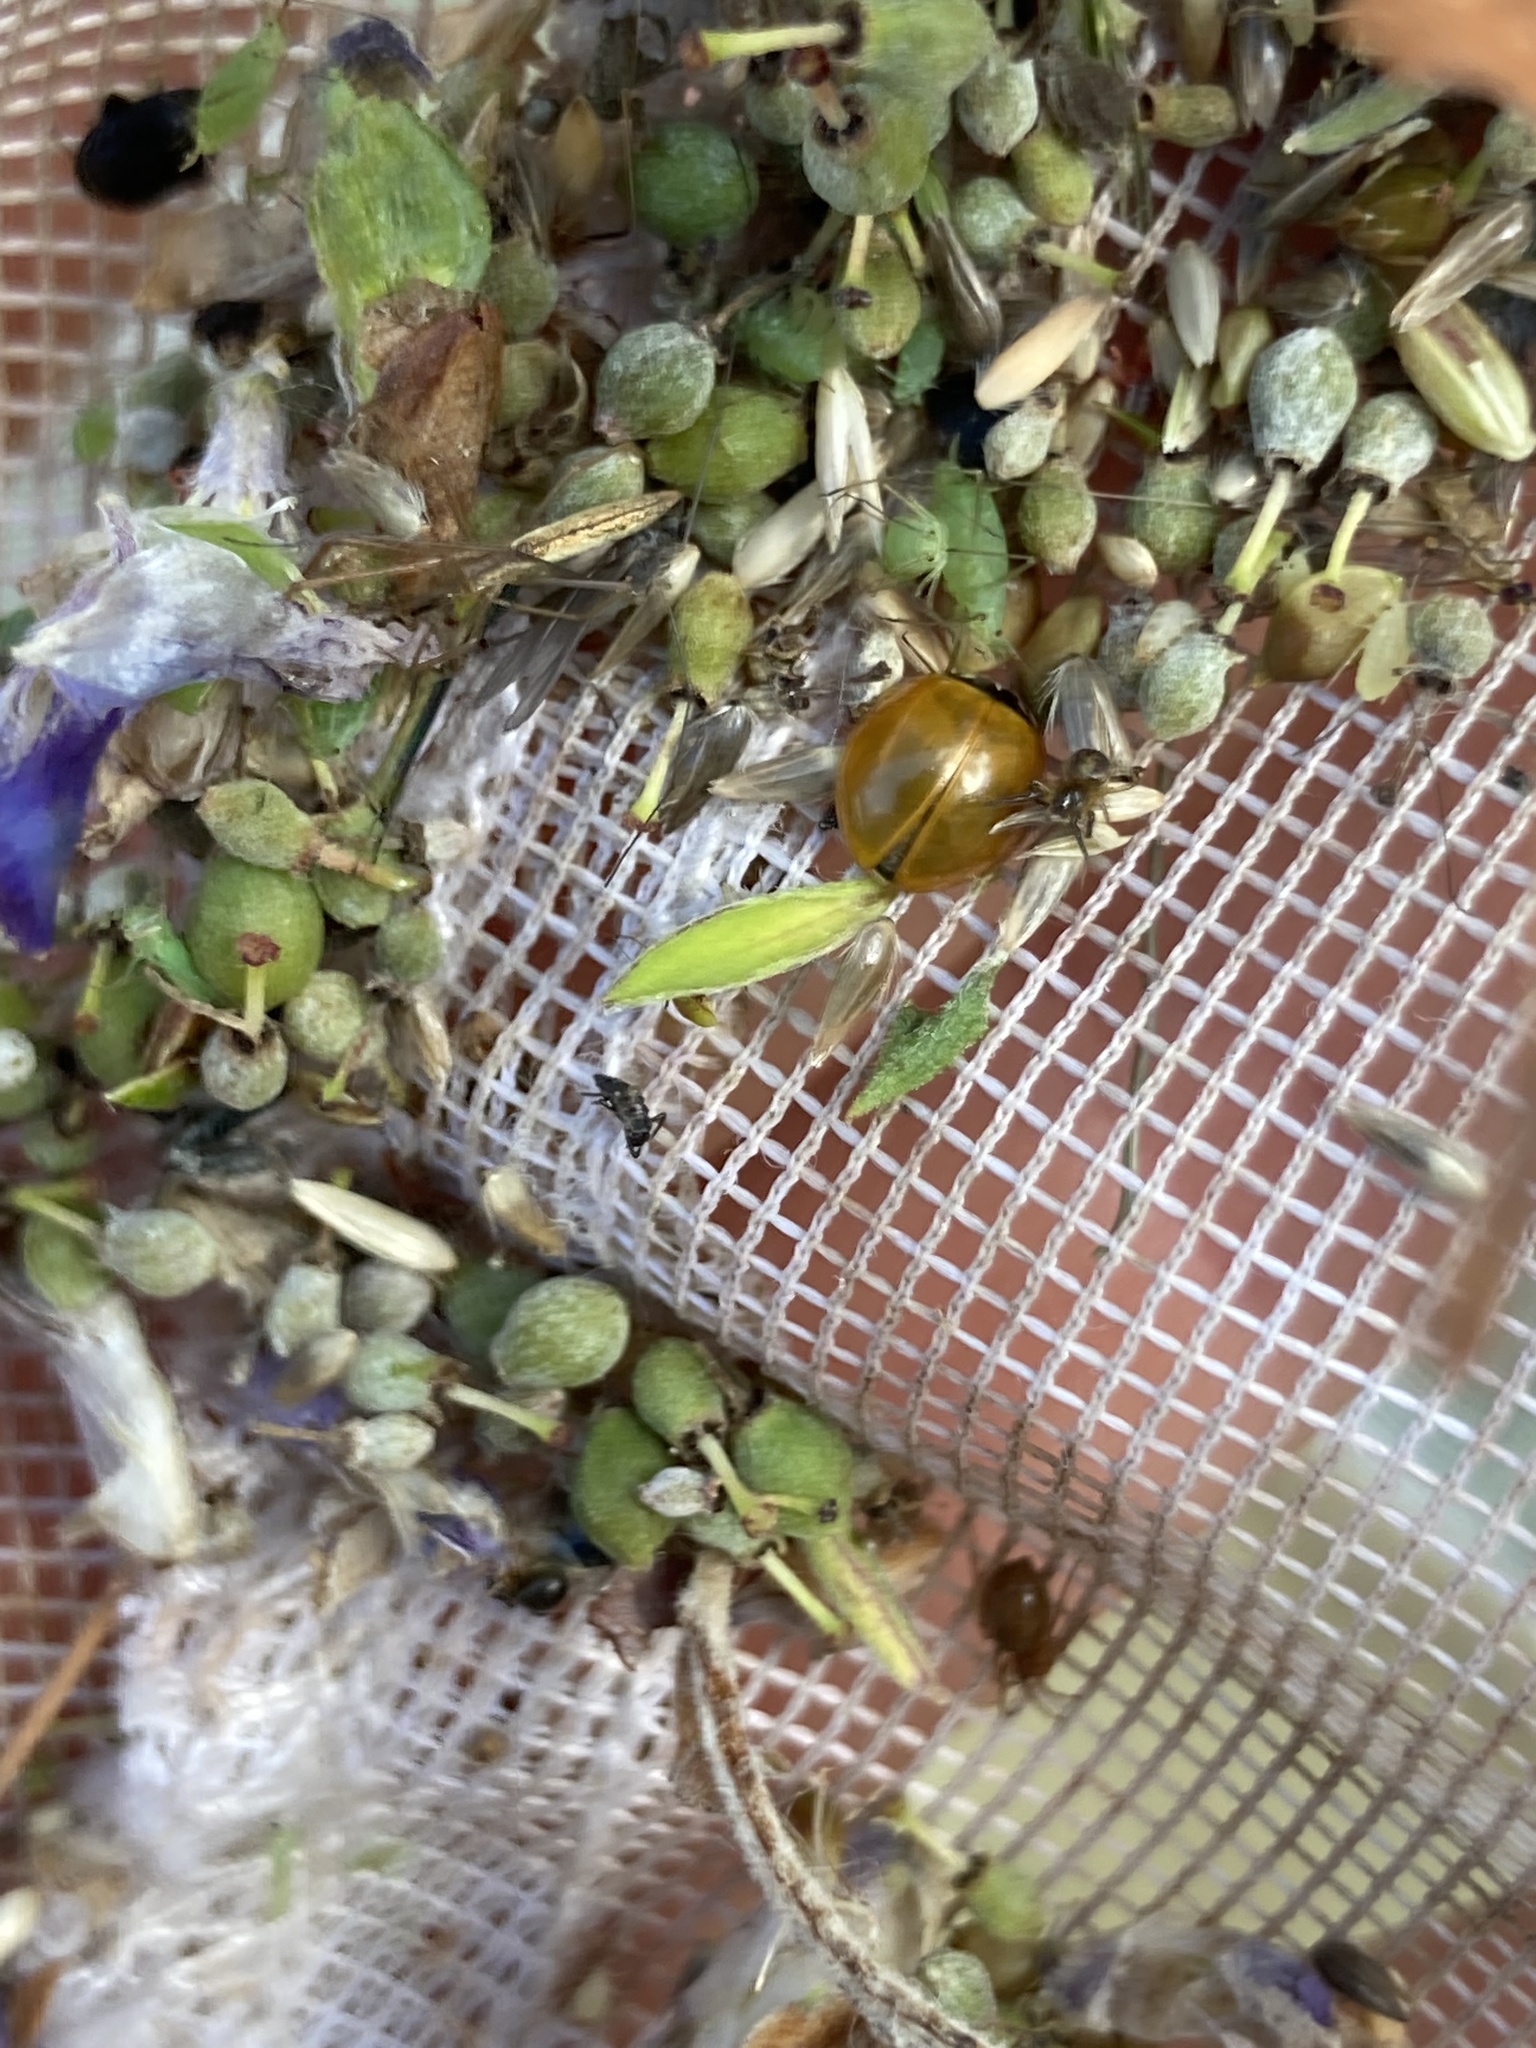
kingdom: Animalia
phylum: Arthropoda
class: Insecta
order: Coleoptera
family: Coccinellidae
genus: Cycloneda
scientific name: Cycloneda munda
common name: Polished lady beetle
